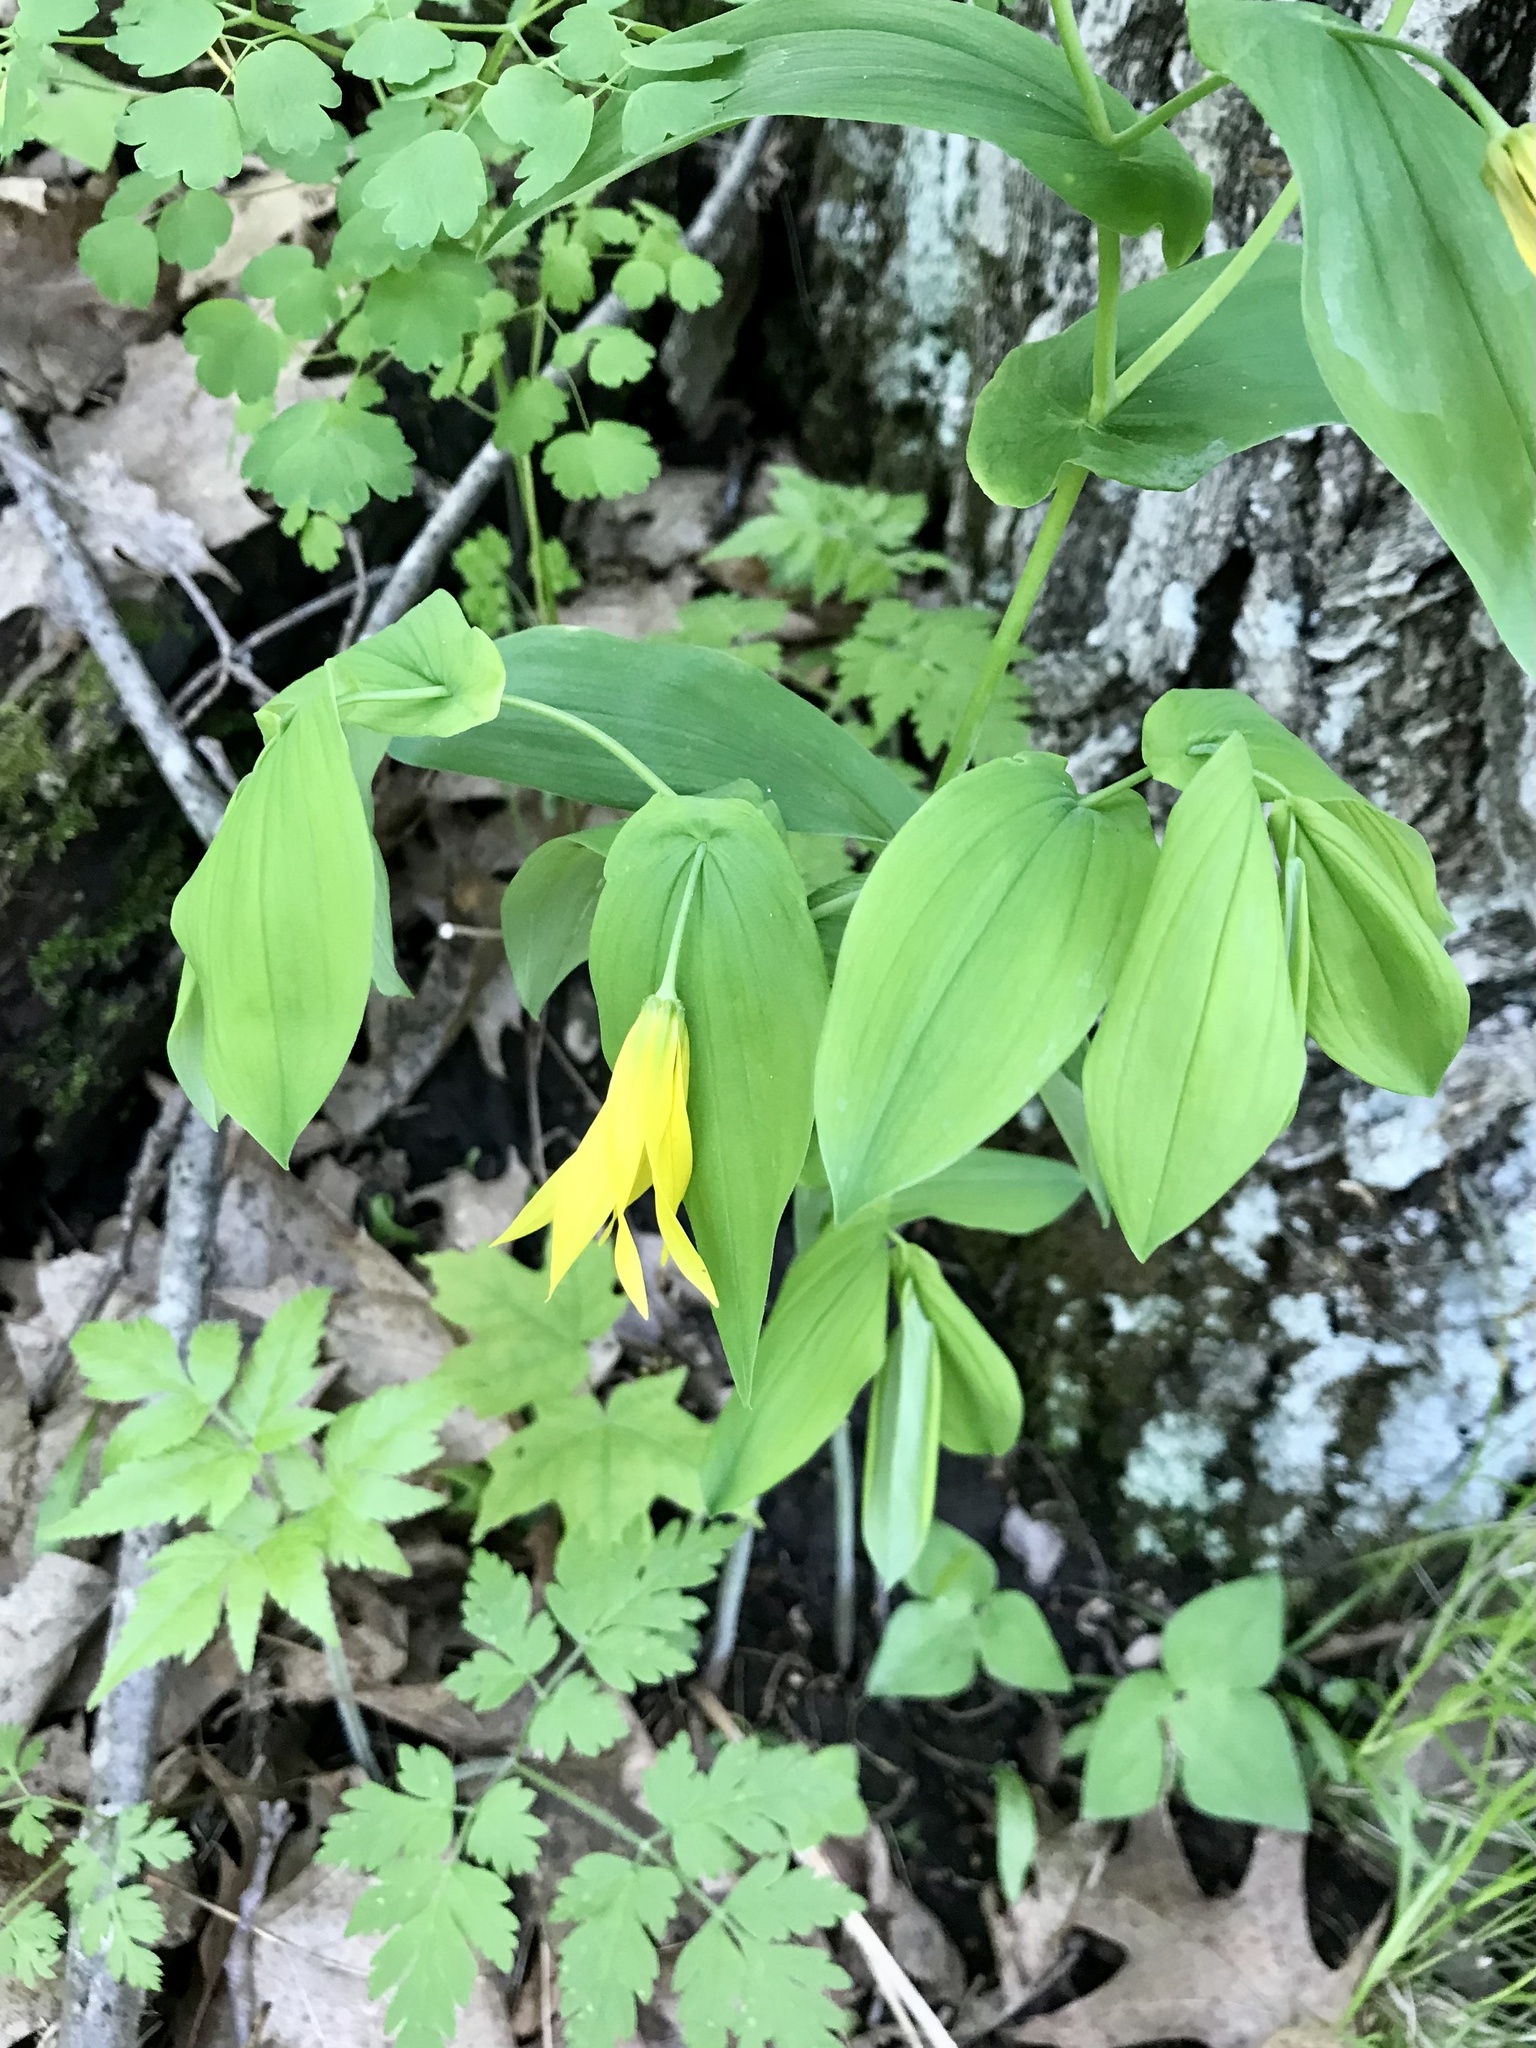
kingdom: Plantae
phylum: Tracheophyta
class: Liliopsida
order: Liliales
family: Colchicaceae
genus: Uvularia
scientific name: Uvularia grandiflora
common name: Bellwort
